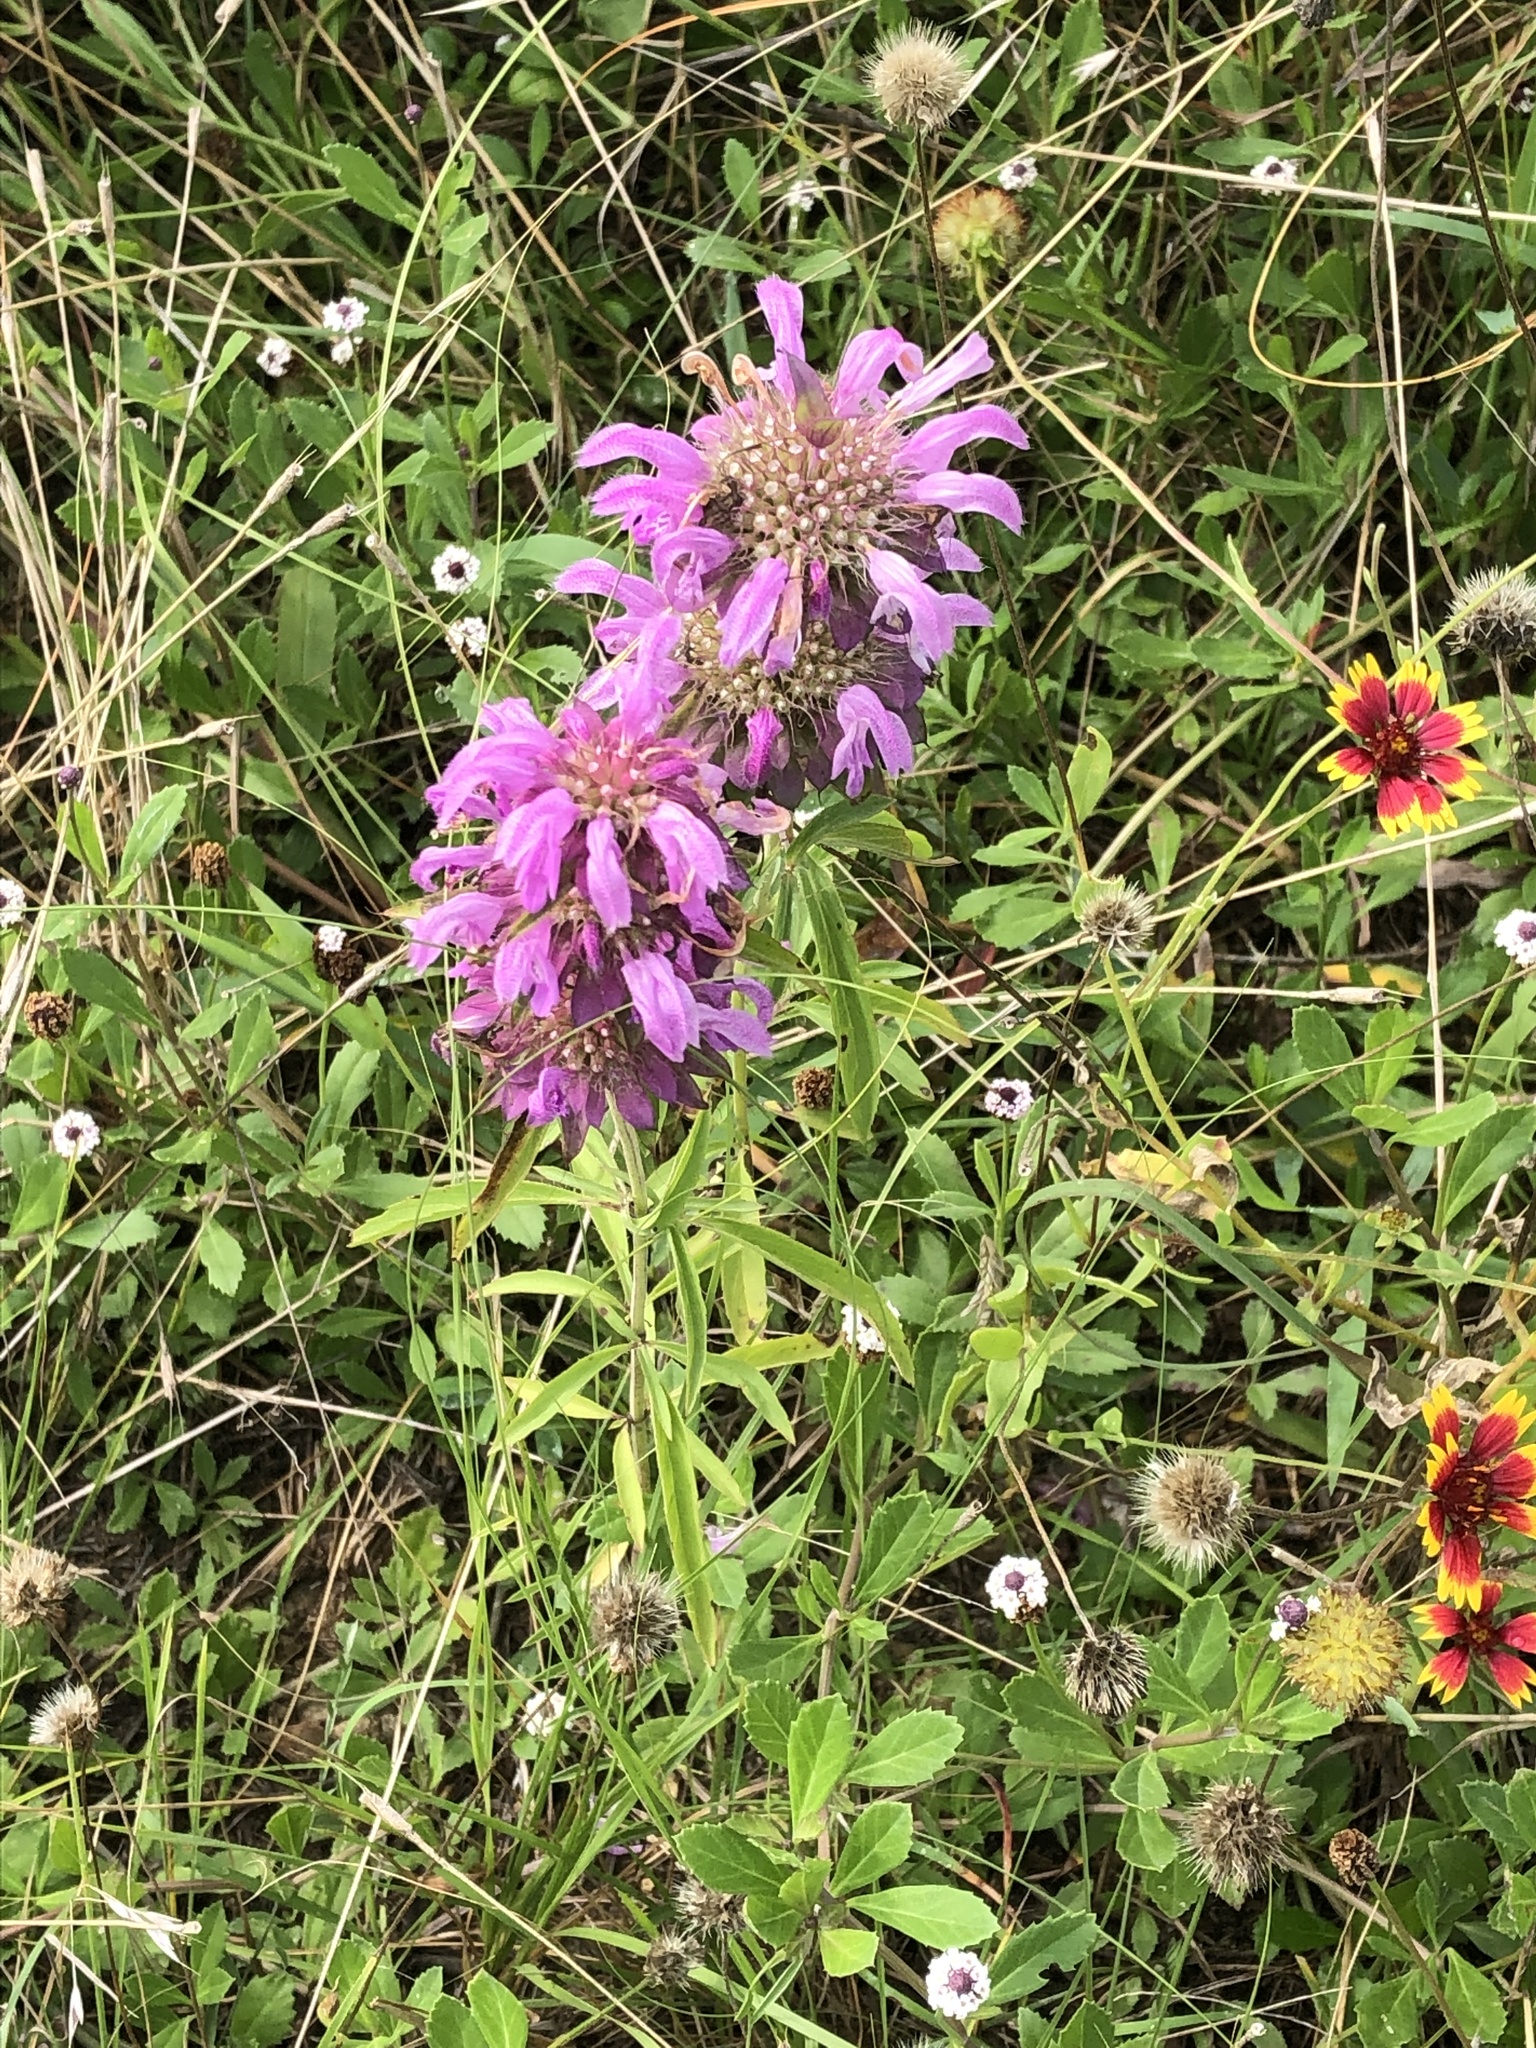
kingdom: Plantae
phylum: Tracheophyta
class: Magnoliopsida
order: Lamiales
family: Lamiaceae
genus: Monarda
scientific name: Monarda citriodora
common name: Lemon beebalm
